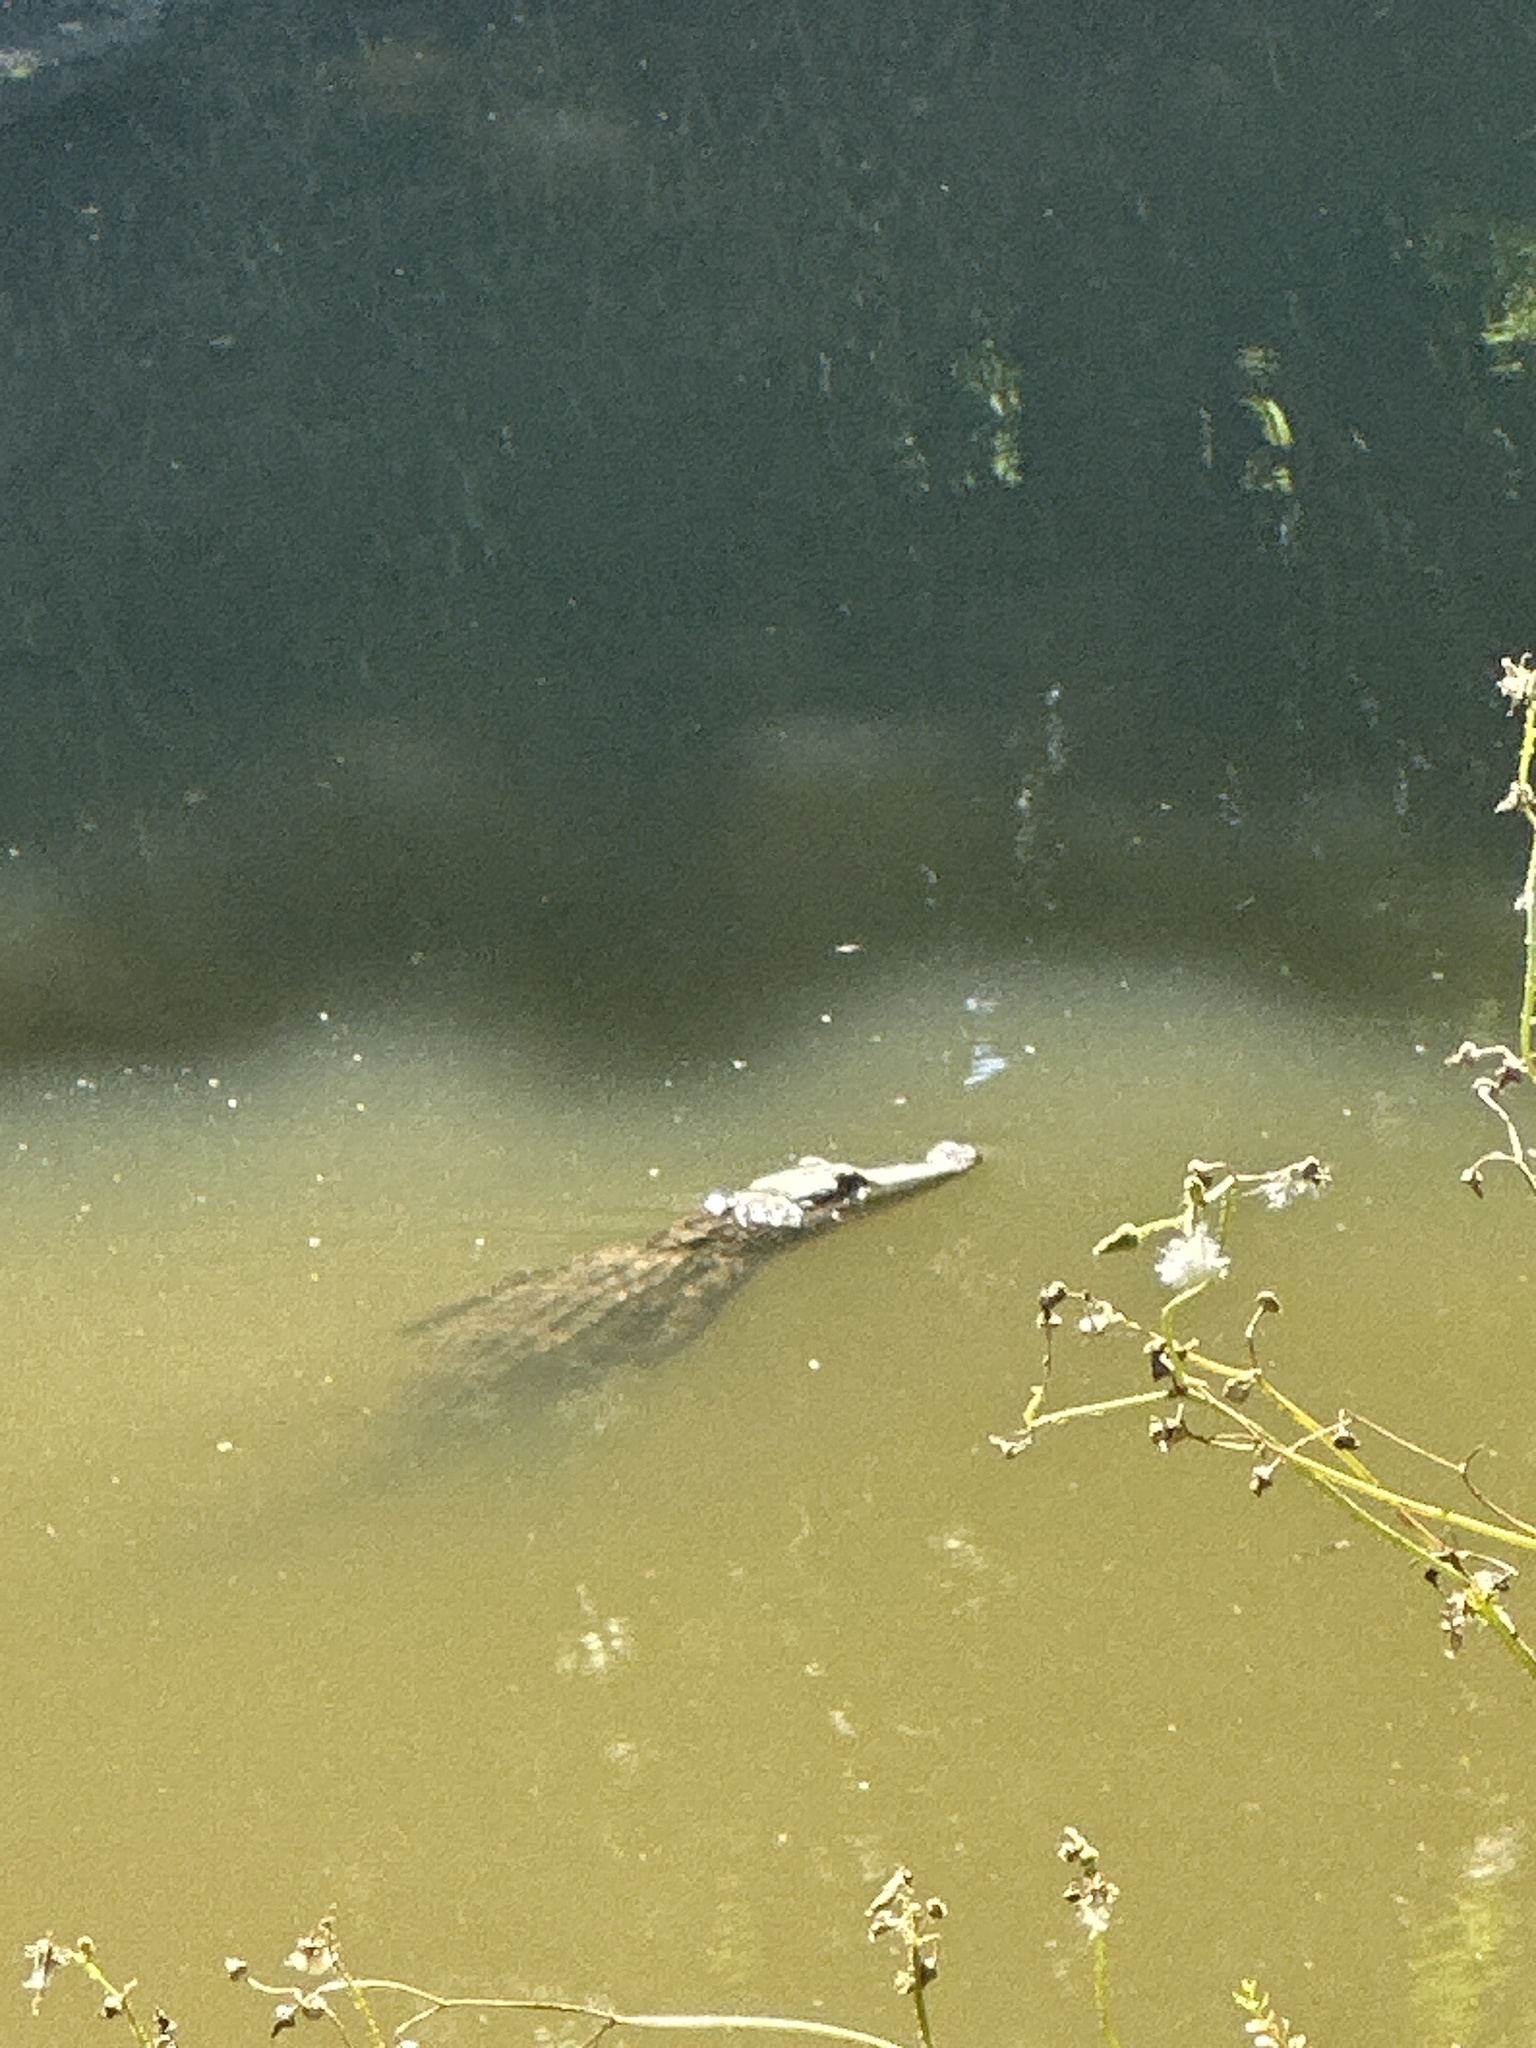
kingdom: Animalia
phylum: Chordata
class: Crocodylia
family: Alligatoridae
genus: Alligator
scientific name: Alligator mississippiensis
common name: American alligator
